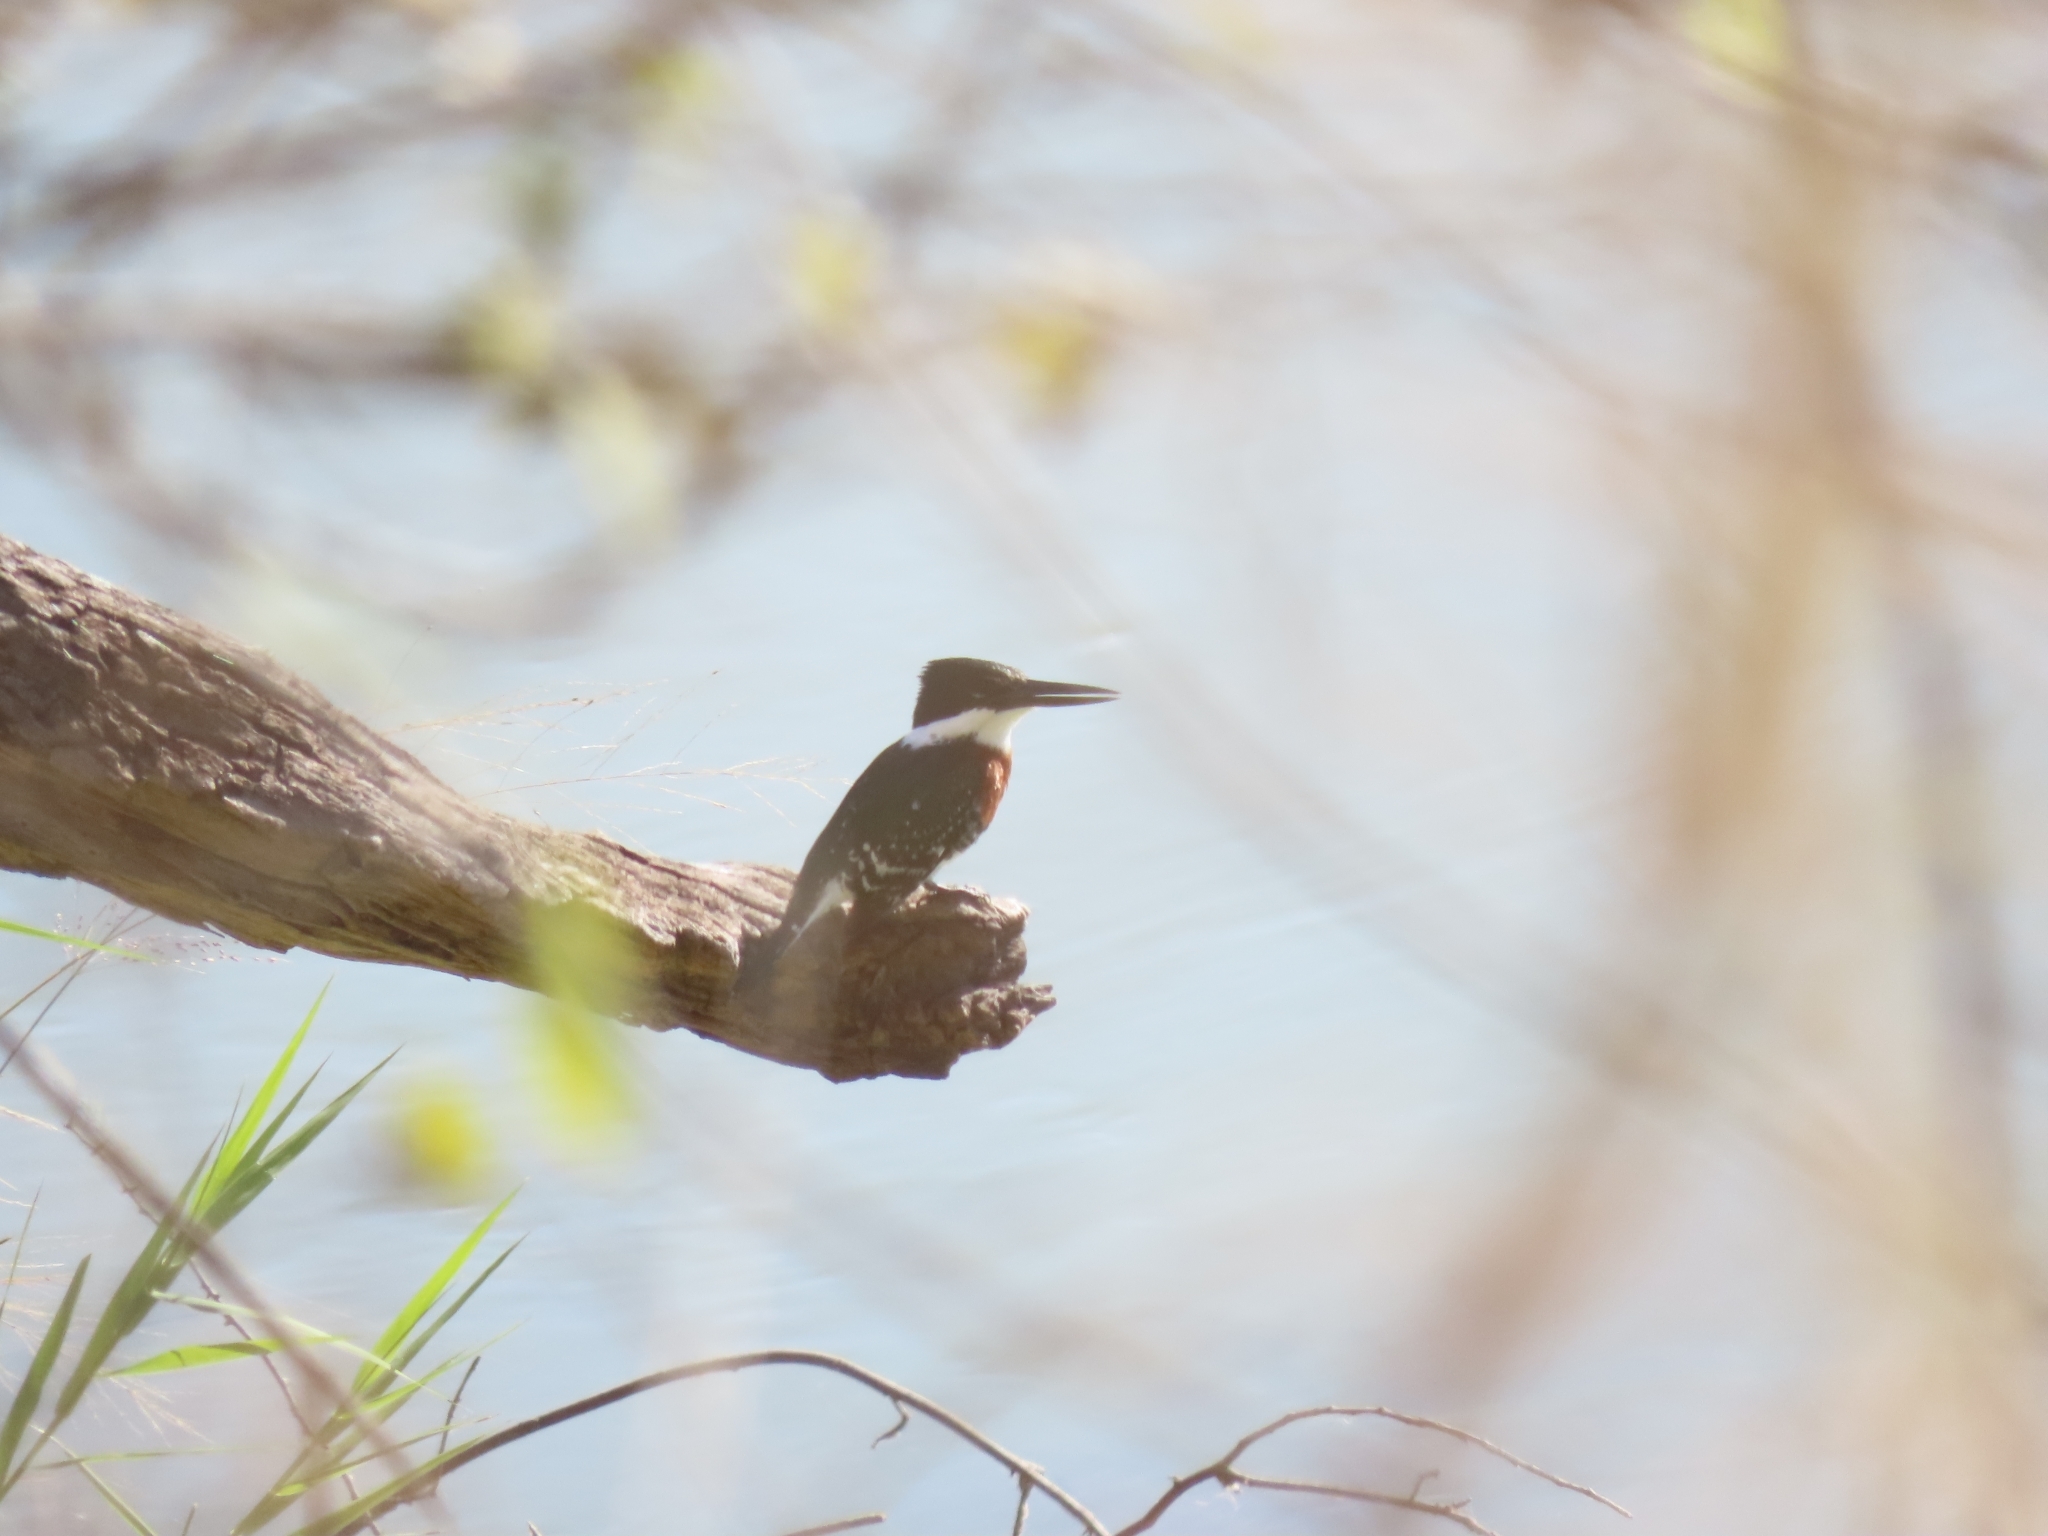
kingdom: Animalia
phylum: Chordata
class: Aves
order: Coraciiformes
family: Alcedinidae
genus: Chloroceryle
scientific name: Chloroceryle americana
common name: Green kingfisher
